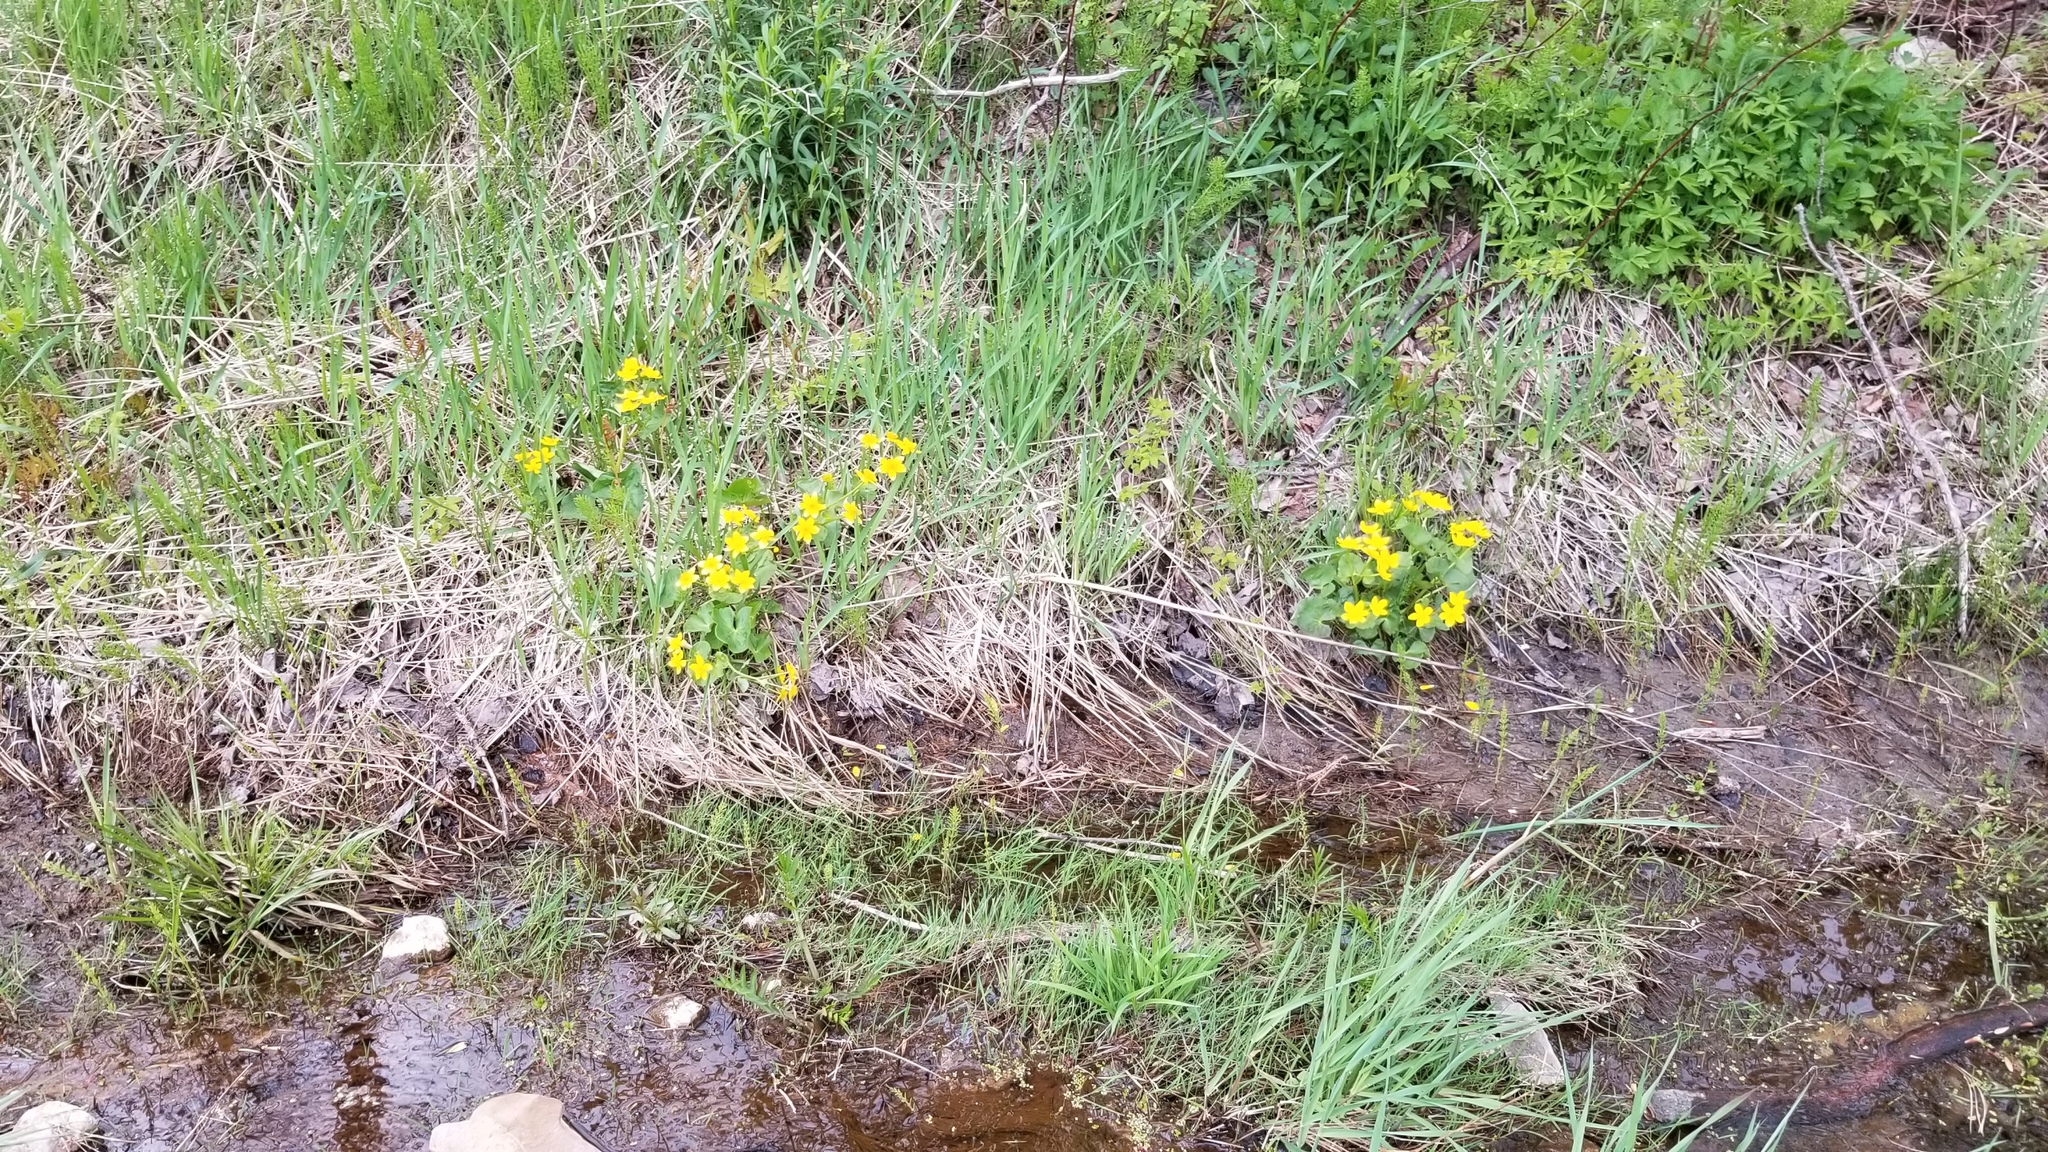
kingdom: Plantae
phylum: Tracheophyta
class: Magnoliopsida
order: Ranunculales
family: Ranunculaceae
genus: Caltha
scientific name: Caltha palustris
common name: Marsh marigold
